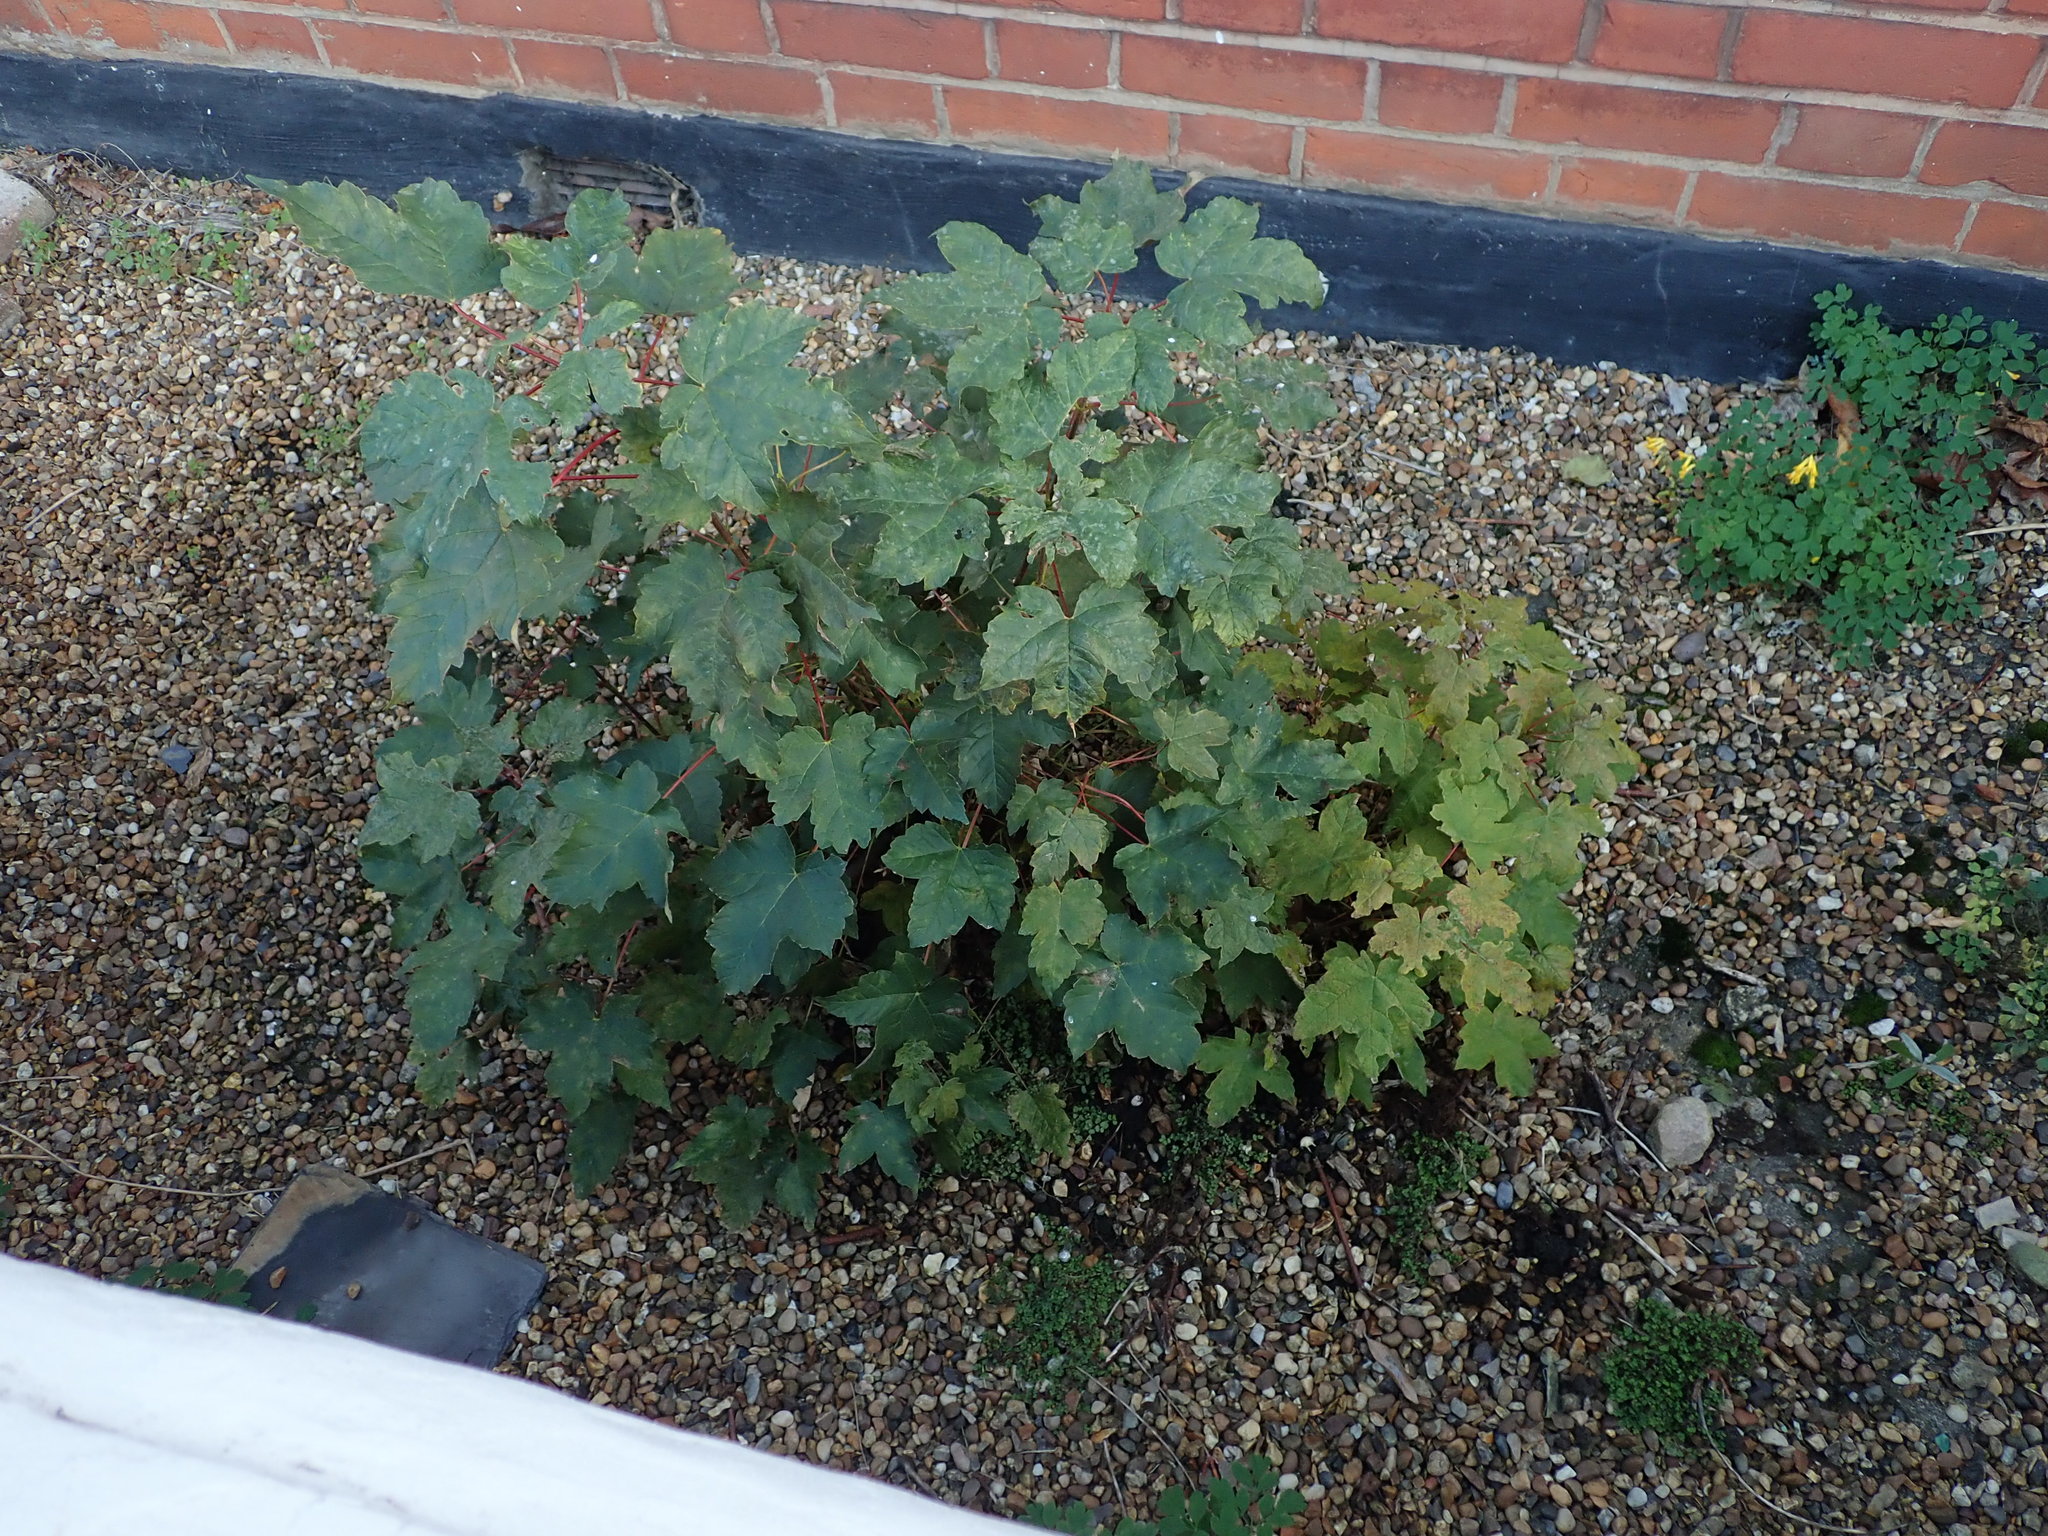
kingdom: Plantae
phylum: Tracheophyta
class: Magnoliopsida
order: Sapindales
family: Sapindaceae
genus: Acer
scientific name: Acer pseudoplatanus
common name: Sycamore
